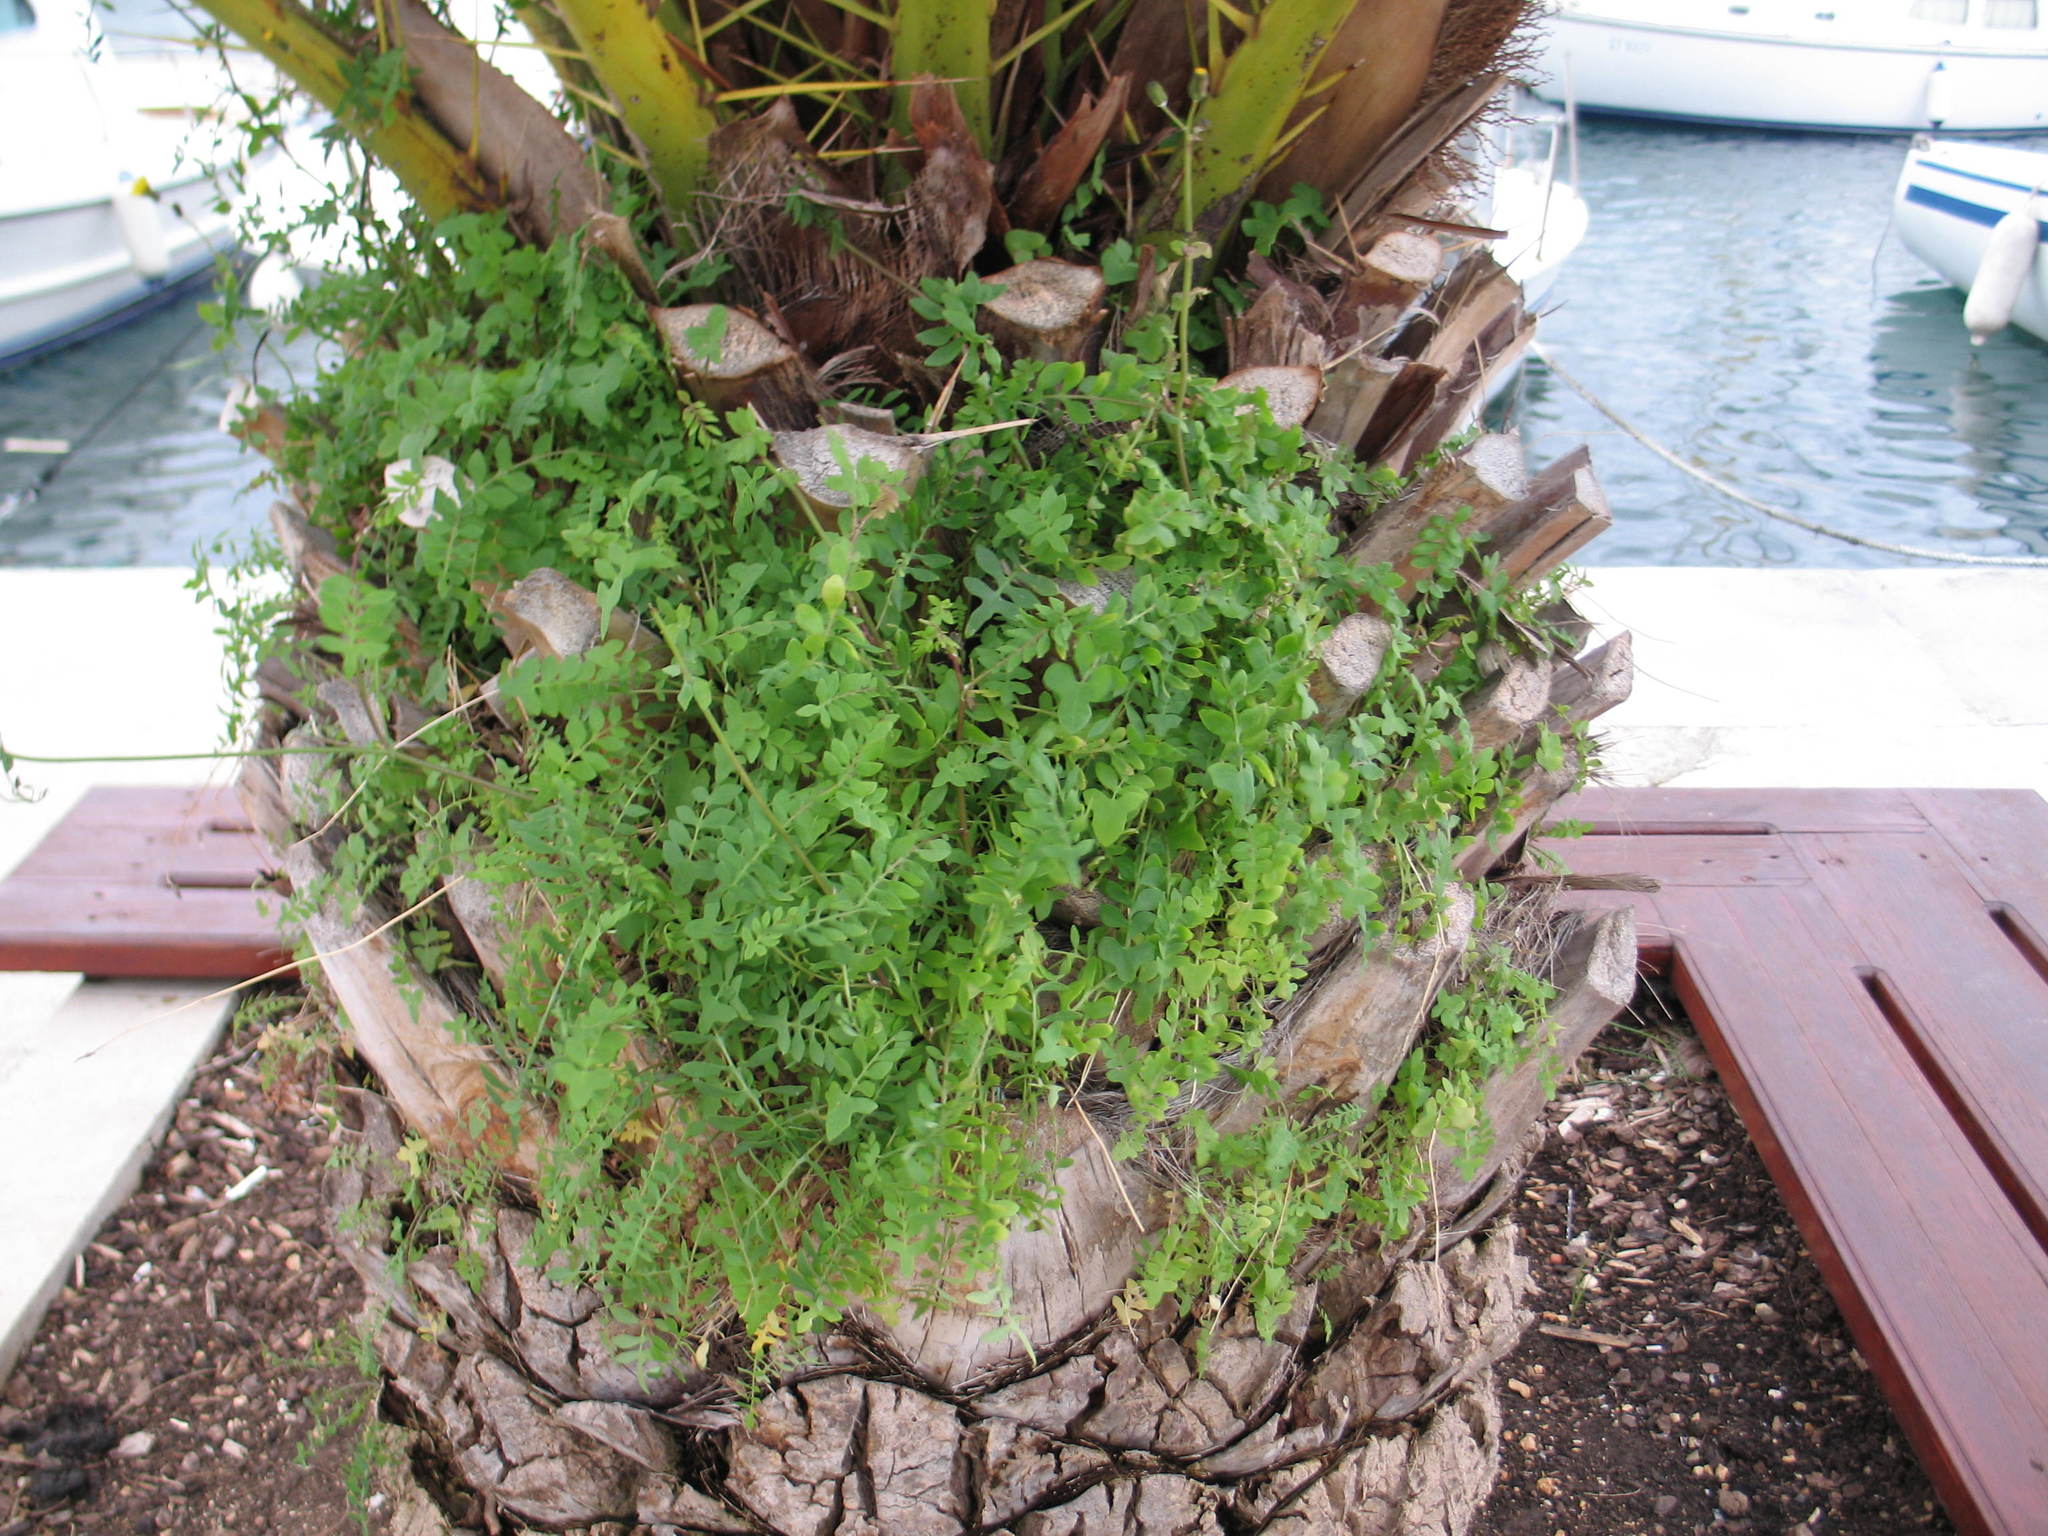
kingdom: Plantae
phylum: Tracheophyta
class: Magnoliopsida
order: Asterales
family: Asteraceae
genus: Sonchus
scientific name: Sonchus tenerrimus
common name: Clammy sowthistle
